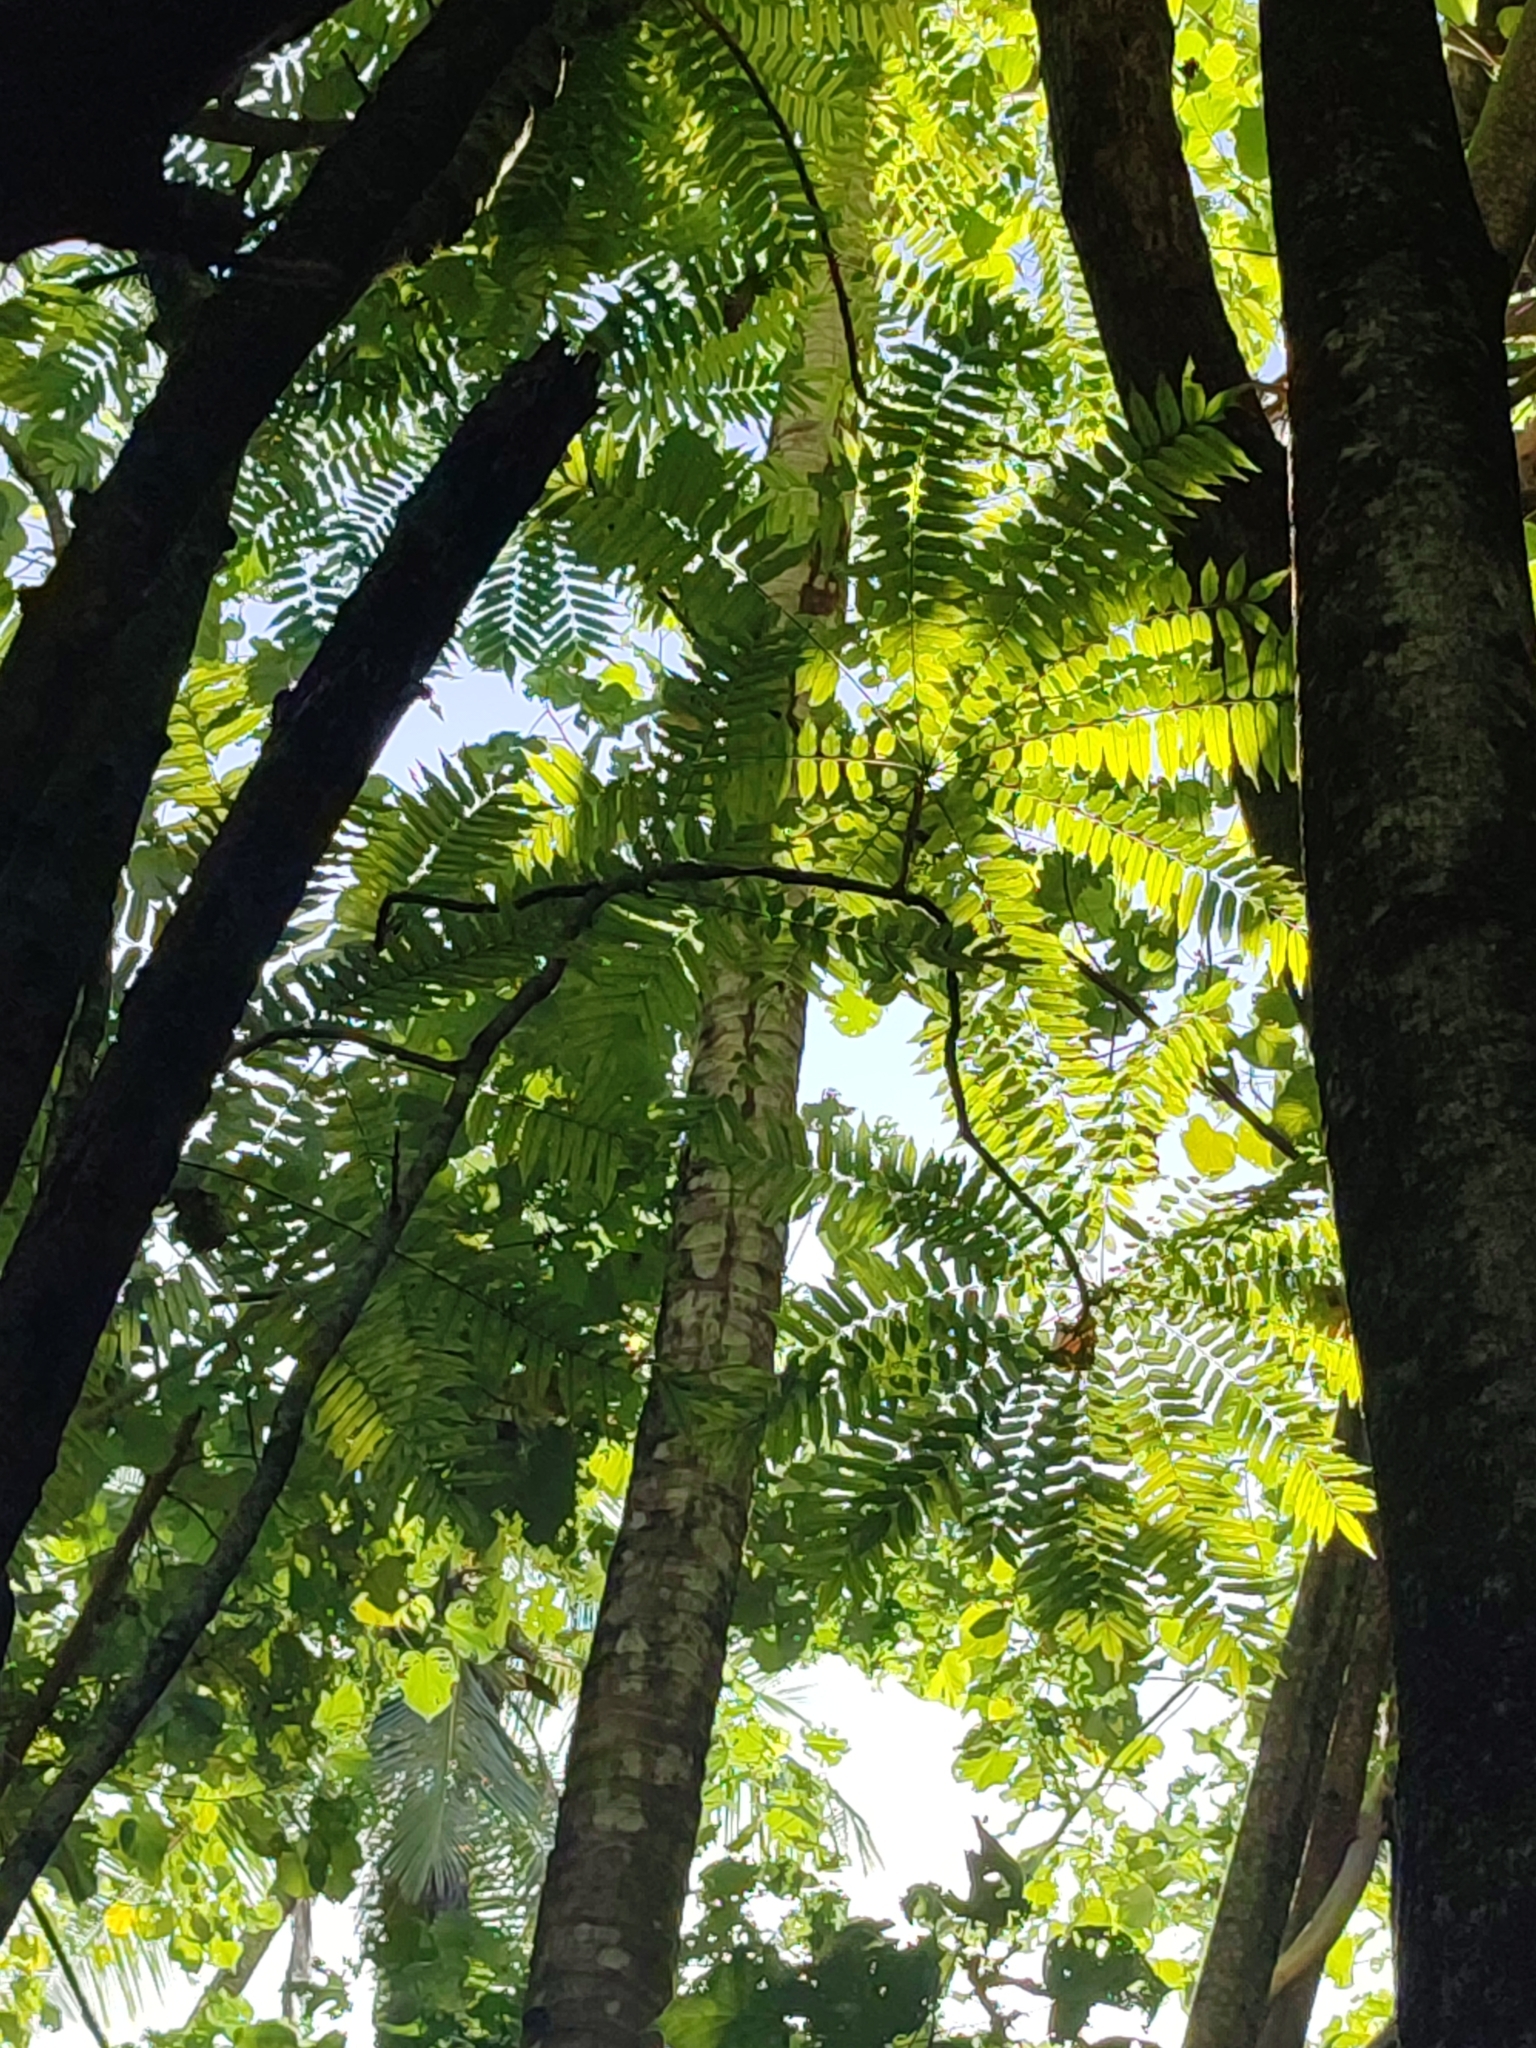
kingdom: Plantae
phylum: Tracheophyta
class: Magnoliopsida
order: Oxalidales
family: Oxalidaceae
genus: Averrhoa
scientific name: Averrhoa bilimbi
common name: Bilimbi
